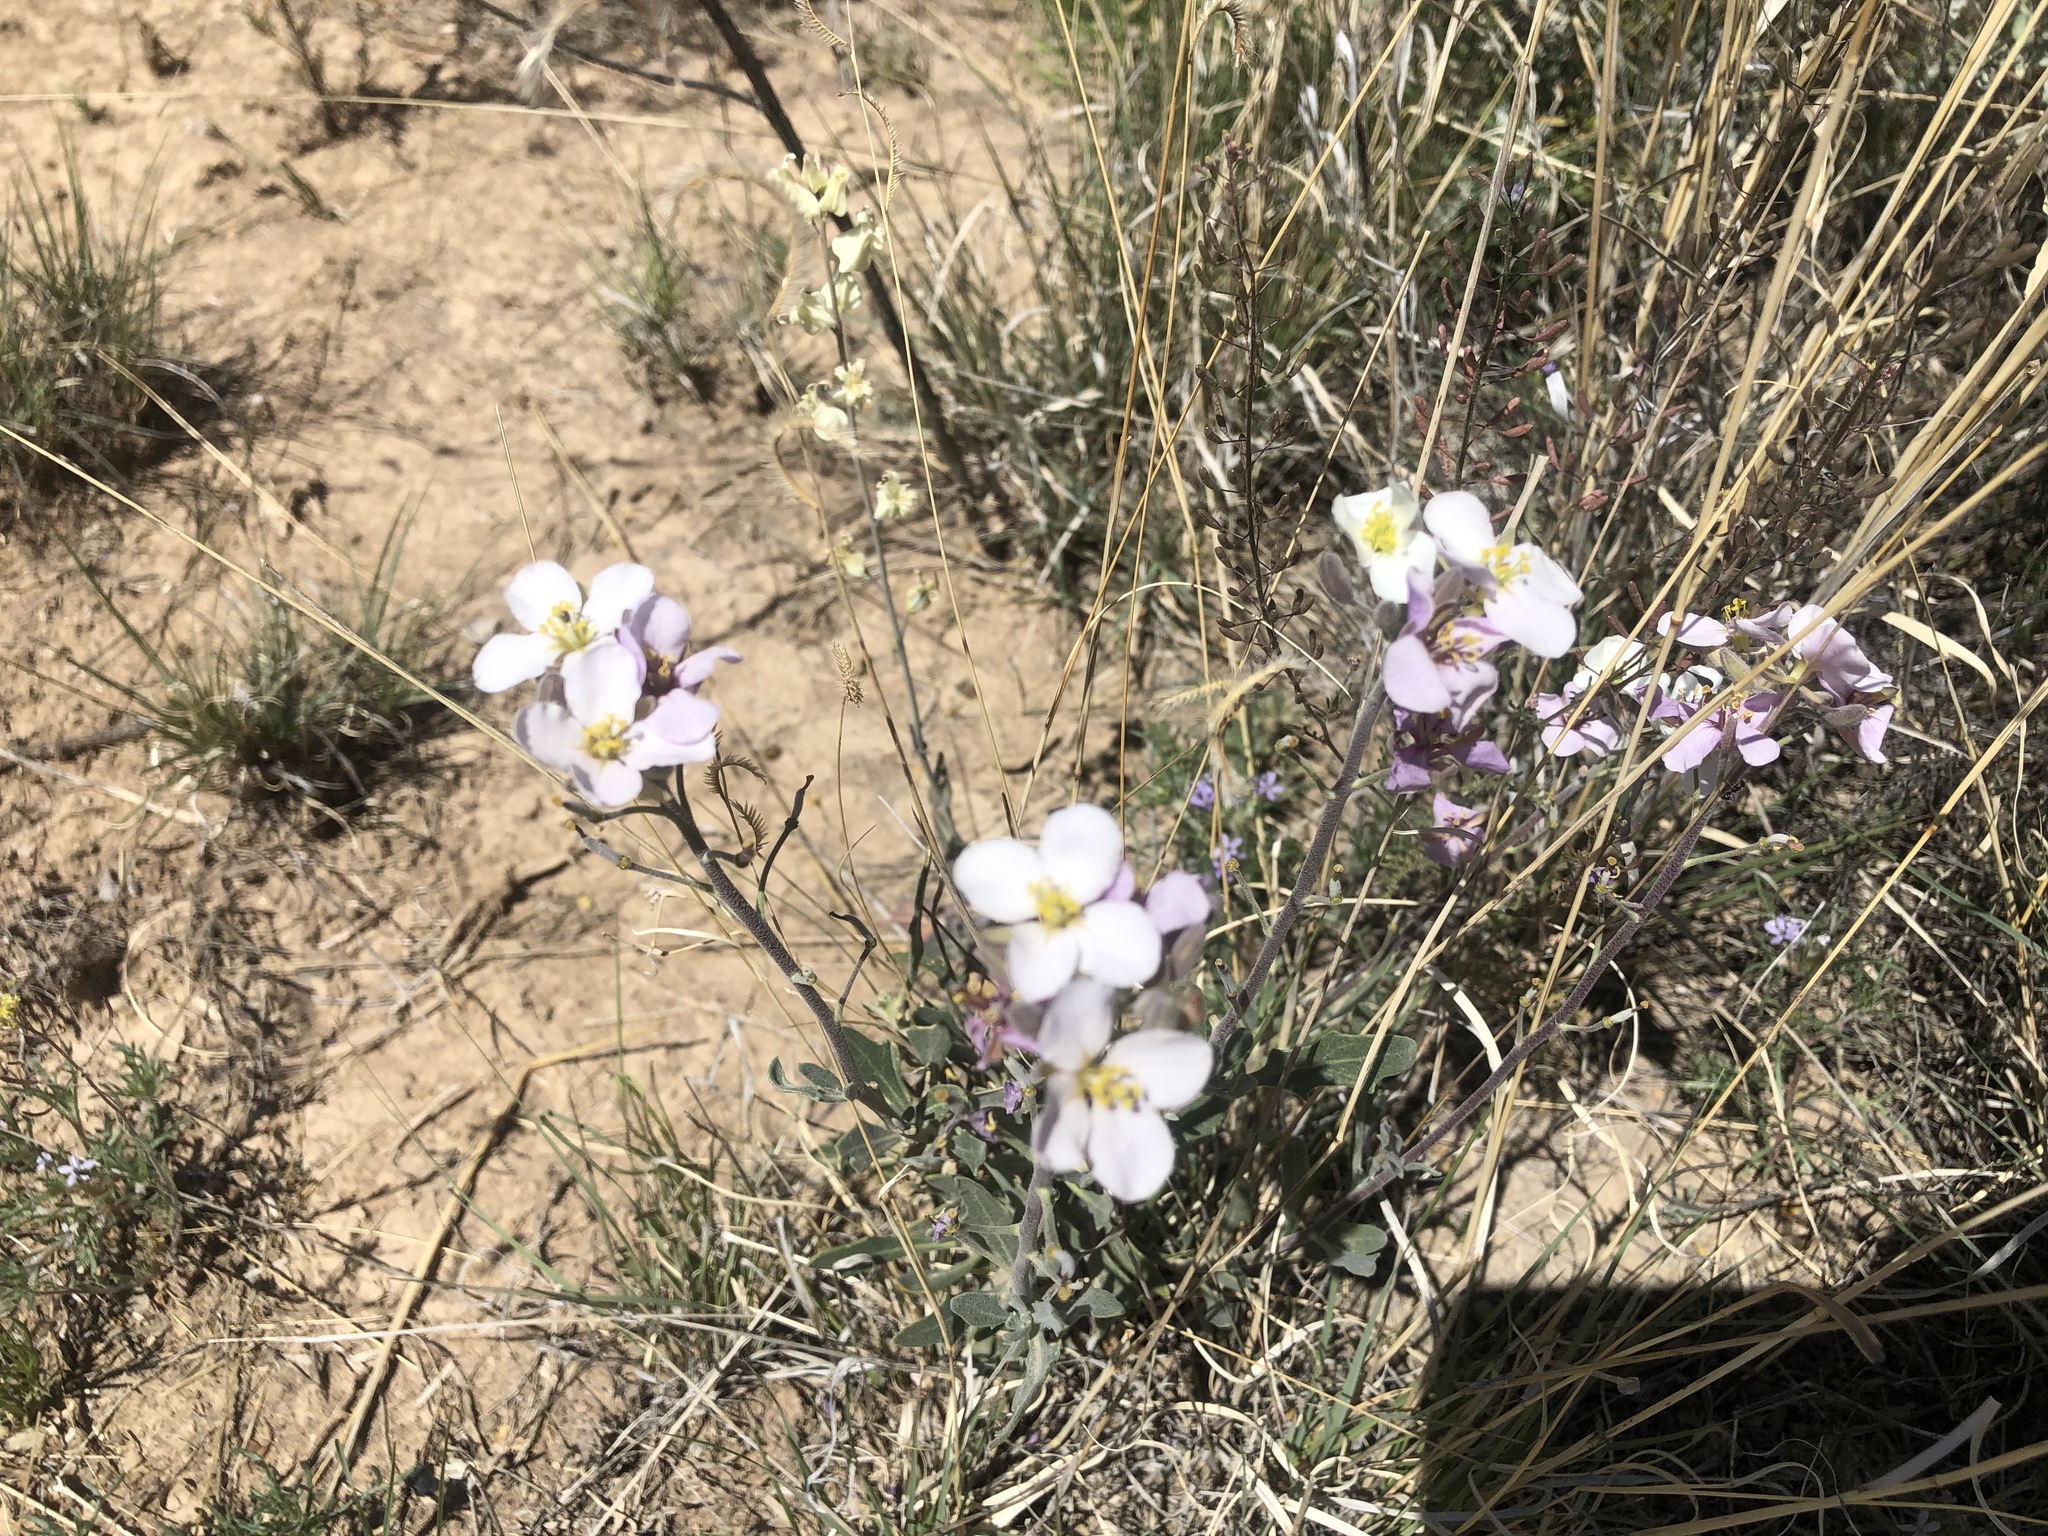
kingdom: Plantae
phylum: Tracheophyta
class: Magnoliopsida
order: Brassicales
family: Brassicaceae
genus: Nerisyrenia
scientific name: Nerisyrenia camporum
